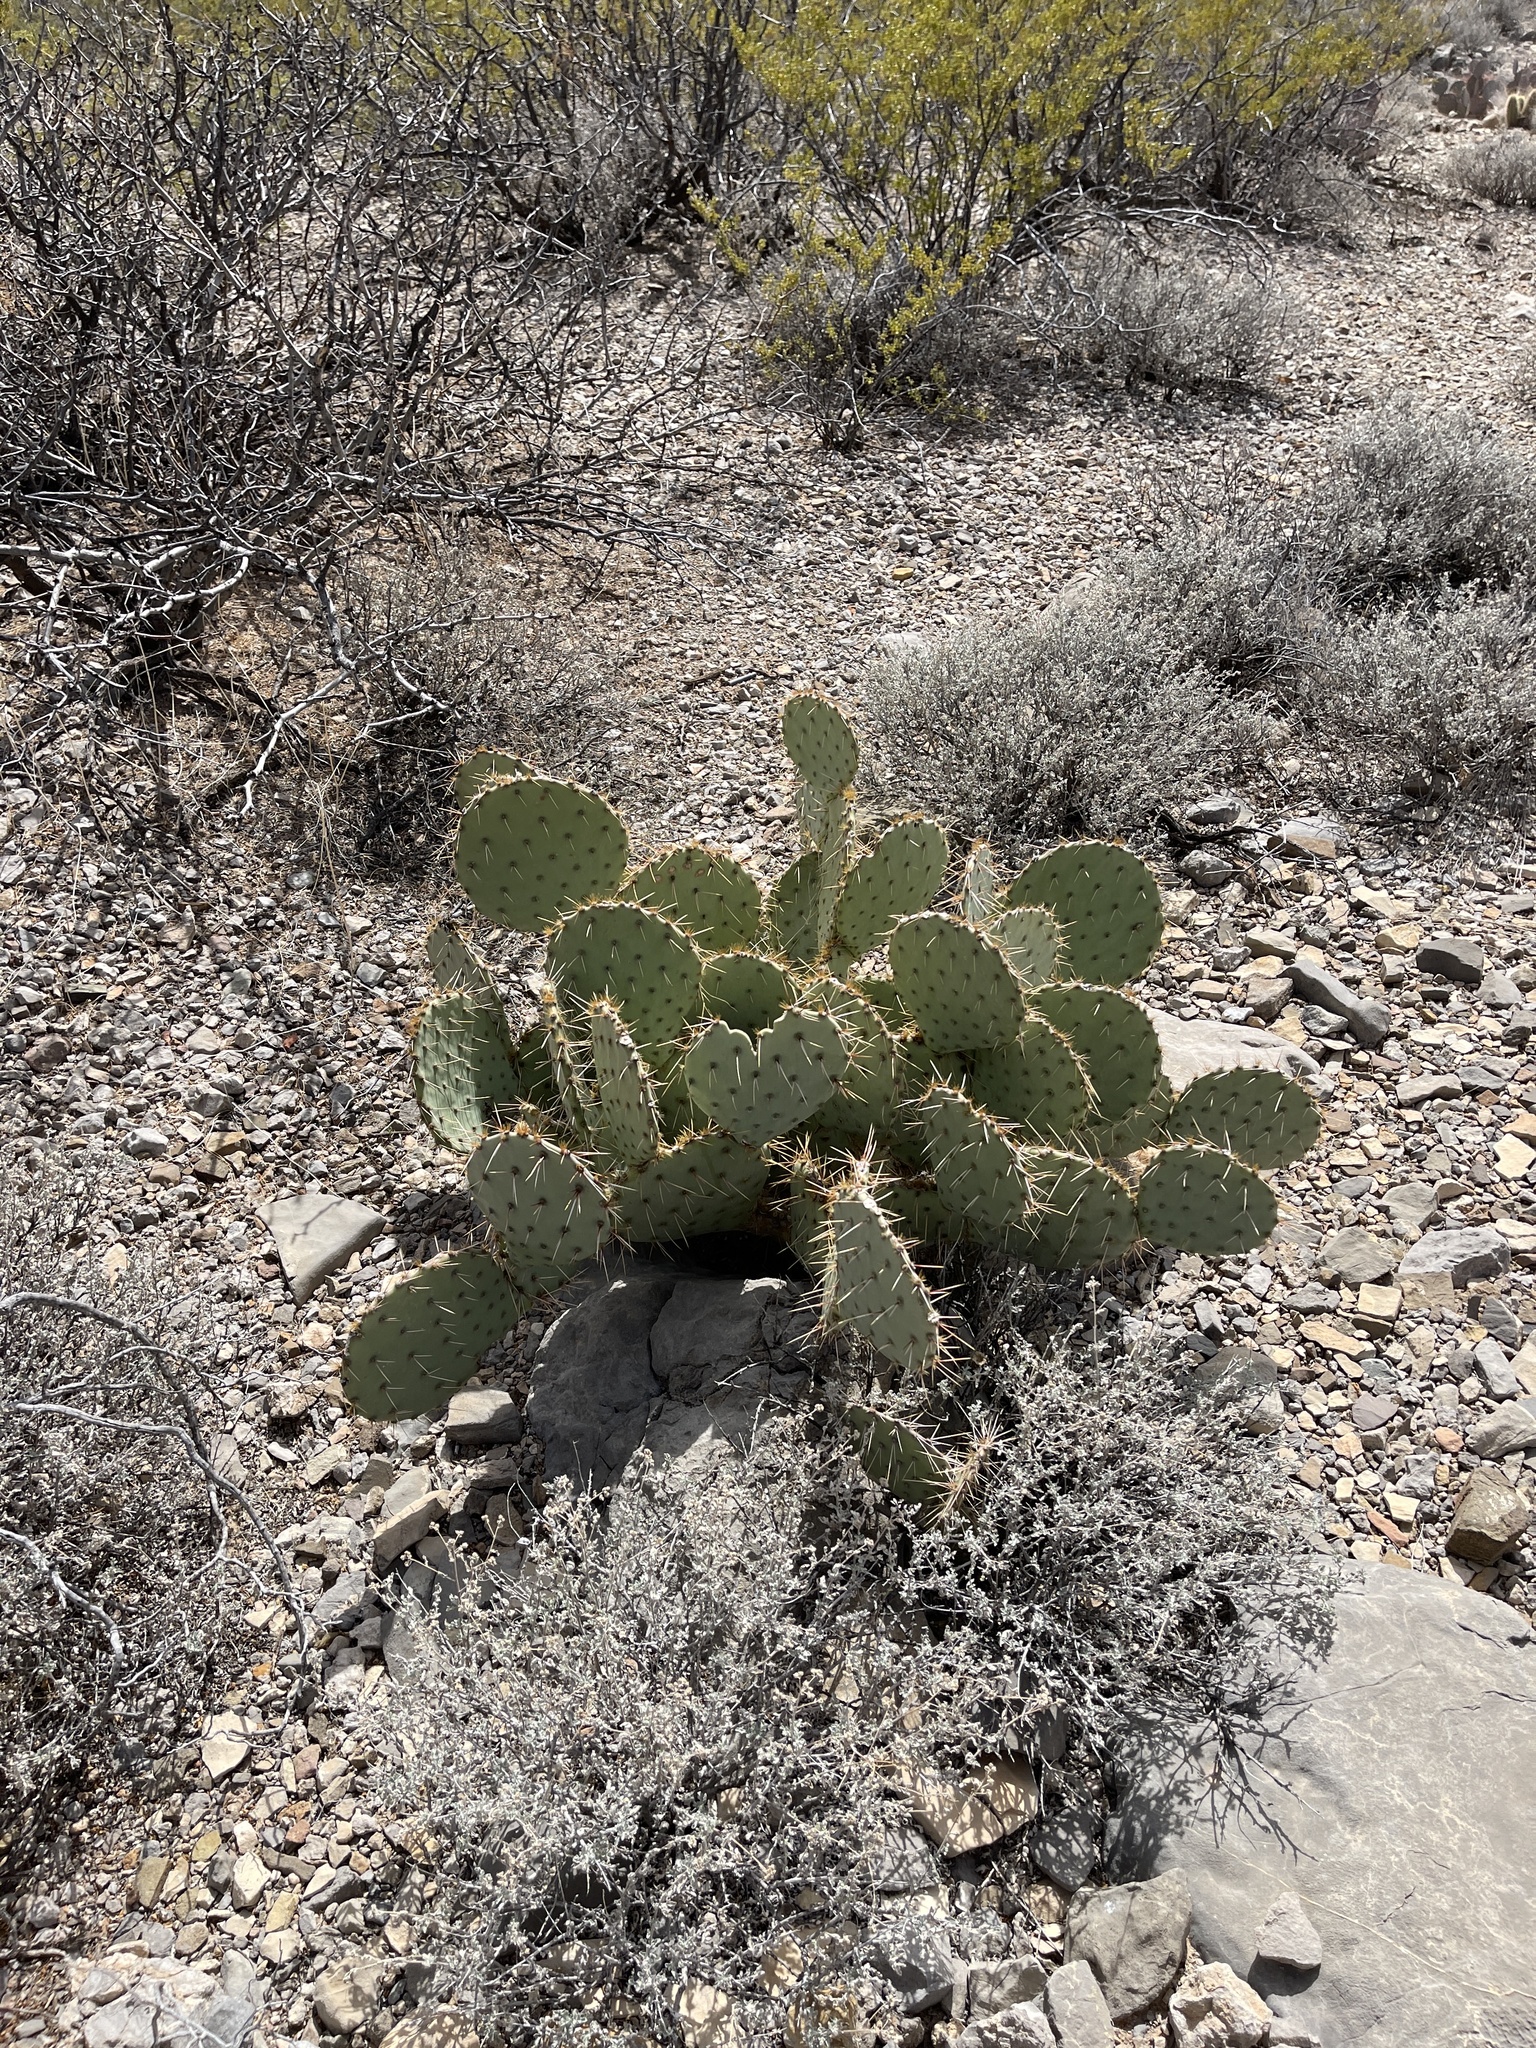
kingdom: Plantae
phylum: Tracheophyta
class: Magnoliopsida
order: Caryophyllales
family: Cactaceae
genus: Opuntia
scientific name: Opuntia engelmannii
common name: Cactus-apple
